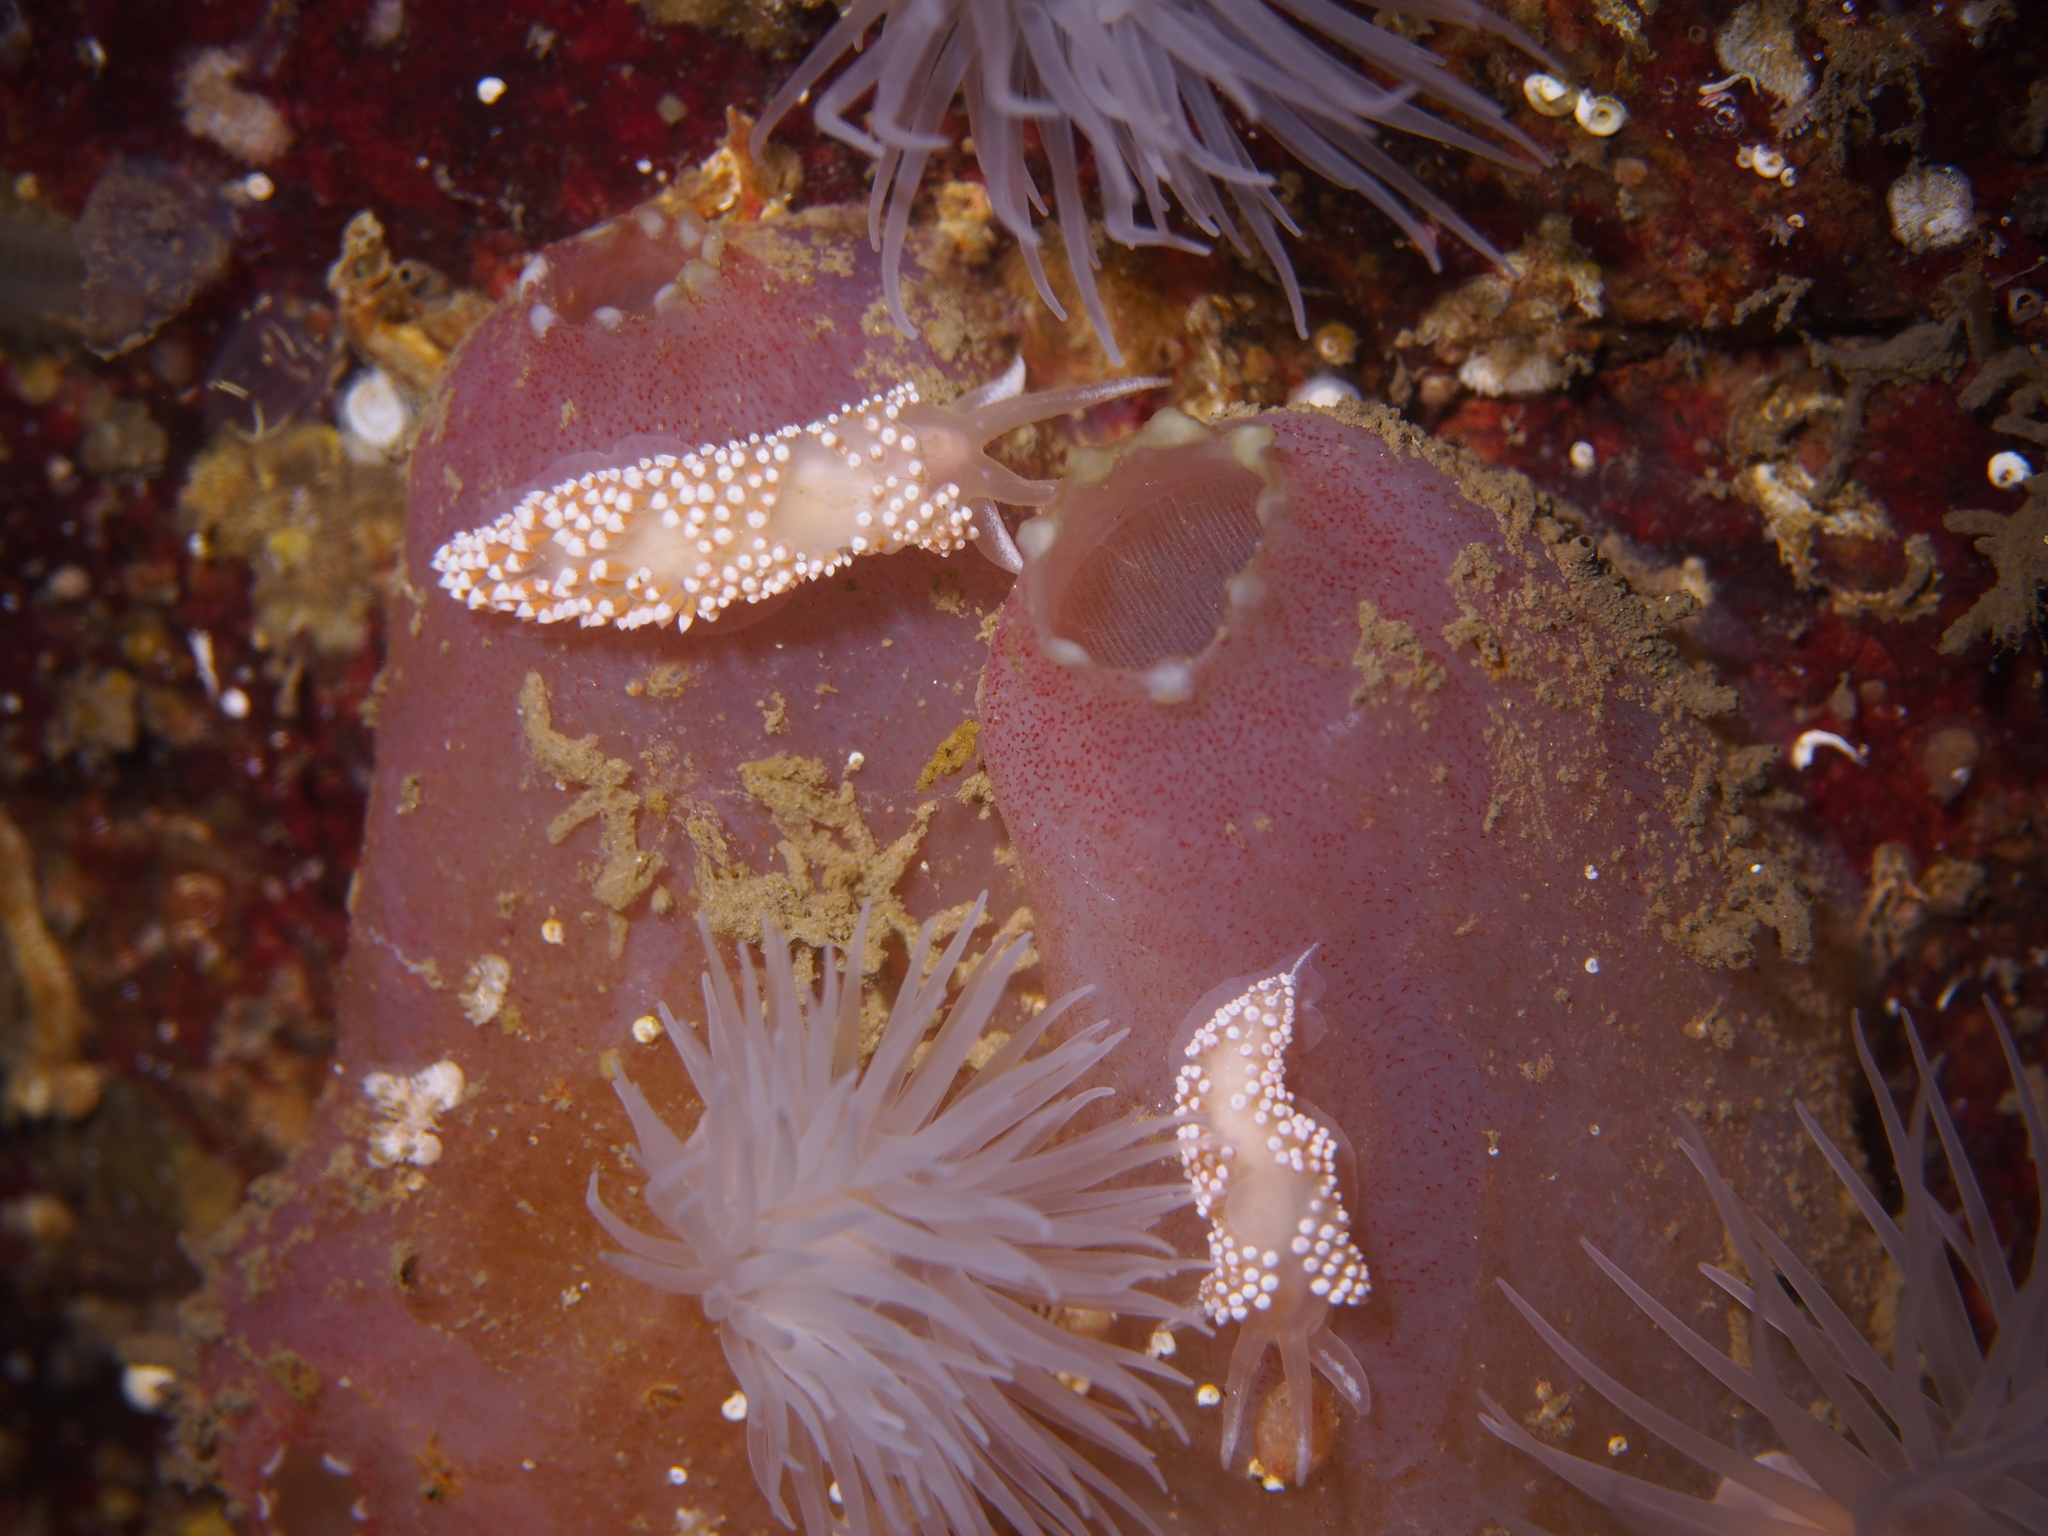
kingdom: Animalia
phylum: Mollusca
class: Gastropoda
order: Nudibranchia
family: Coryphellidae
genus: Coryphella
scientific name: Coryphella verrucosa
